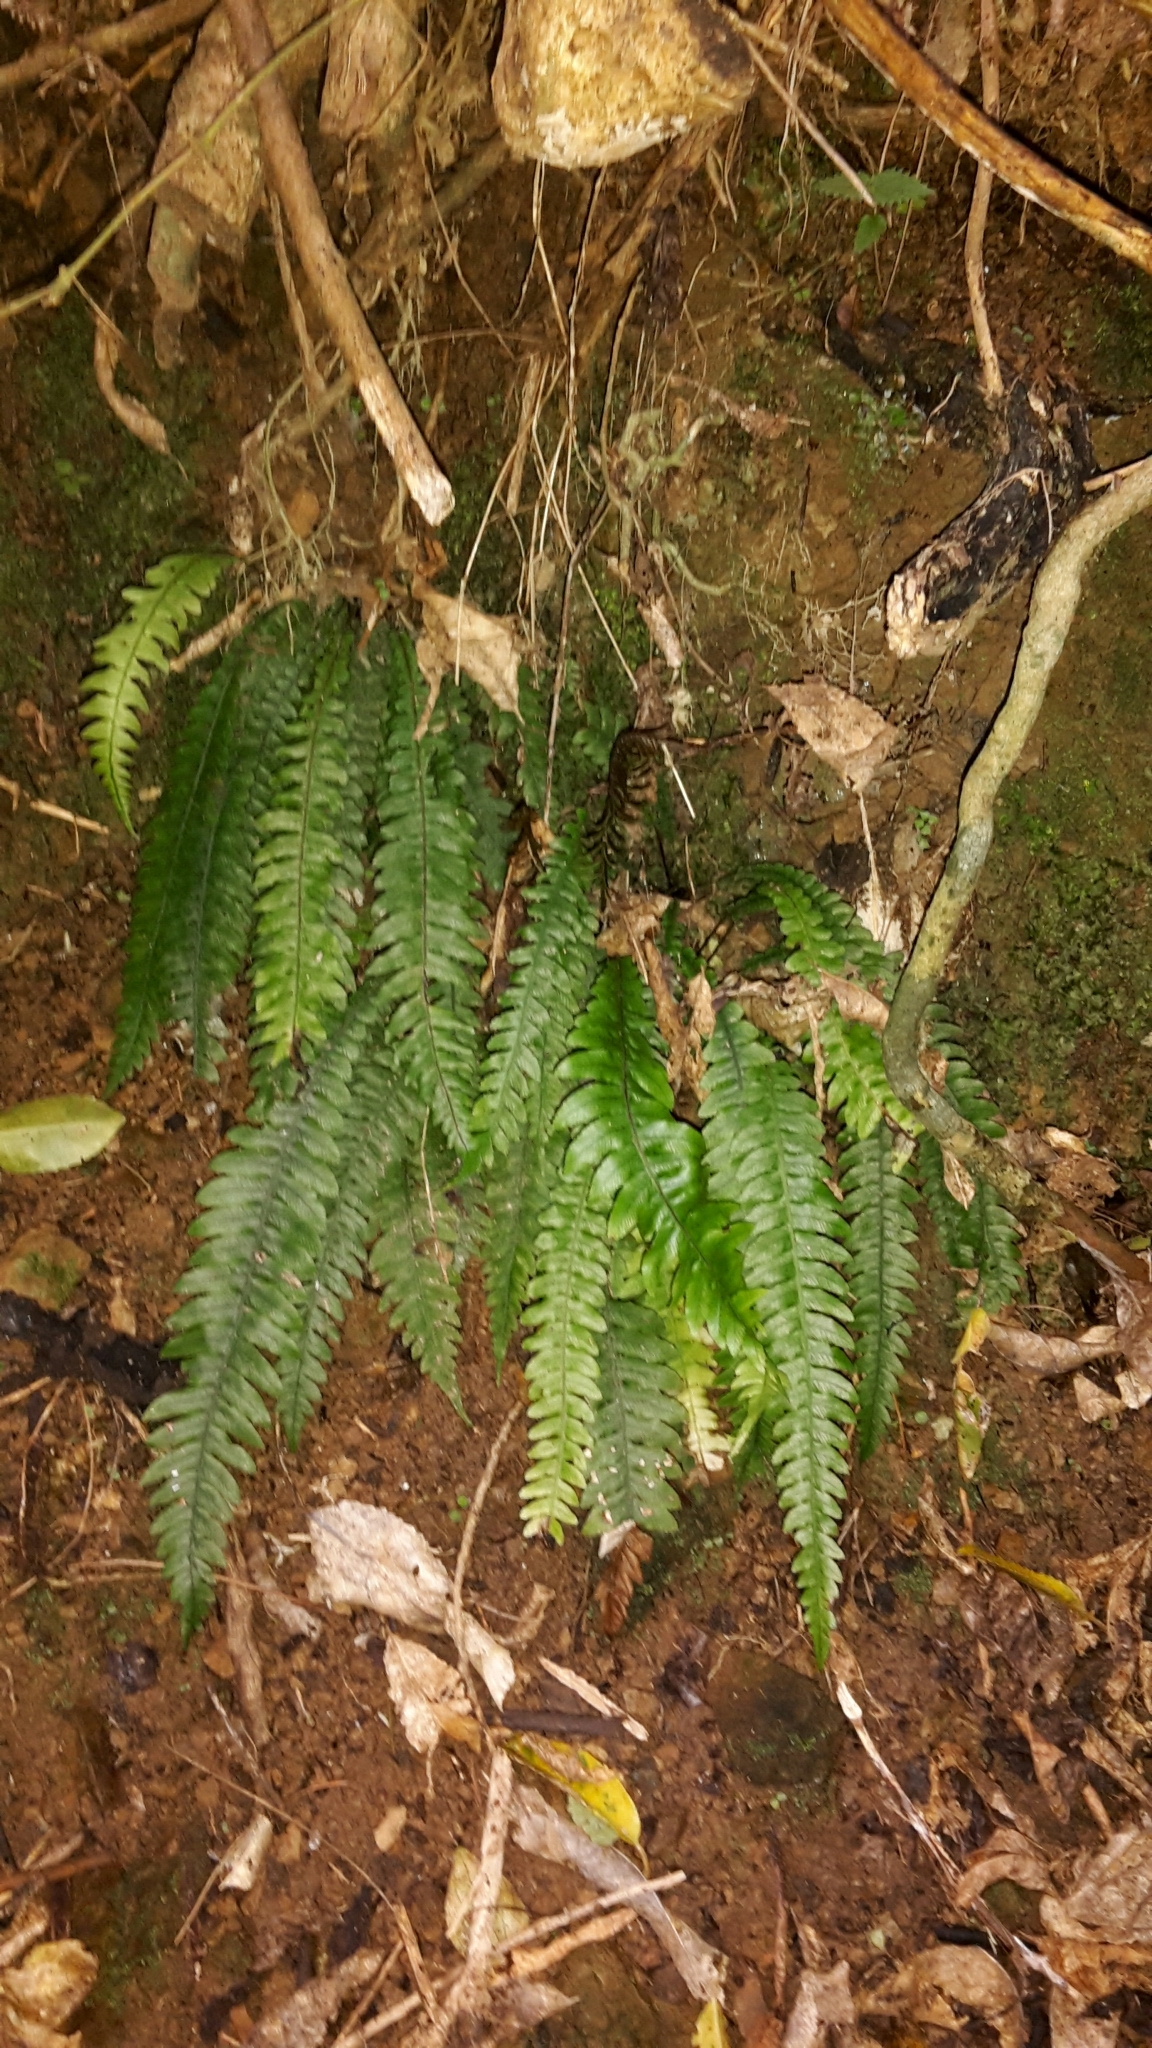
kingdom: Plantae
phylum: Tracheophyta
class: Polypodiopsida
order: Polypodiales
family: Blechnaceae
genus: Austroblechnum
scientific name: Austroblechnum lanceolatum
